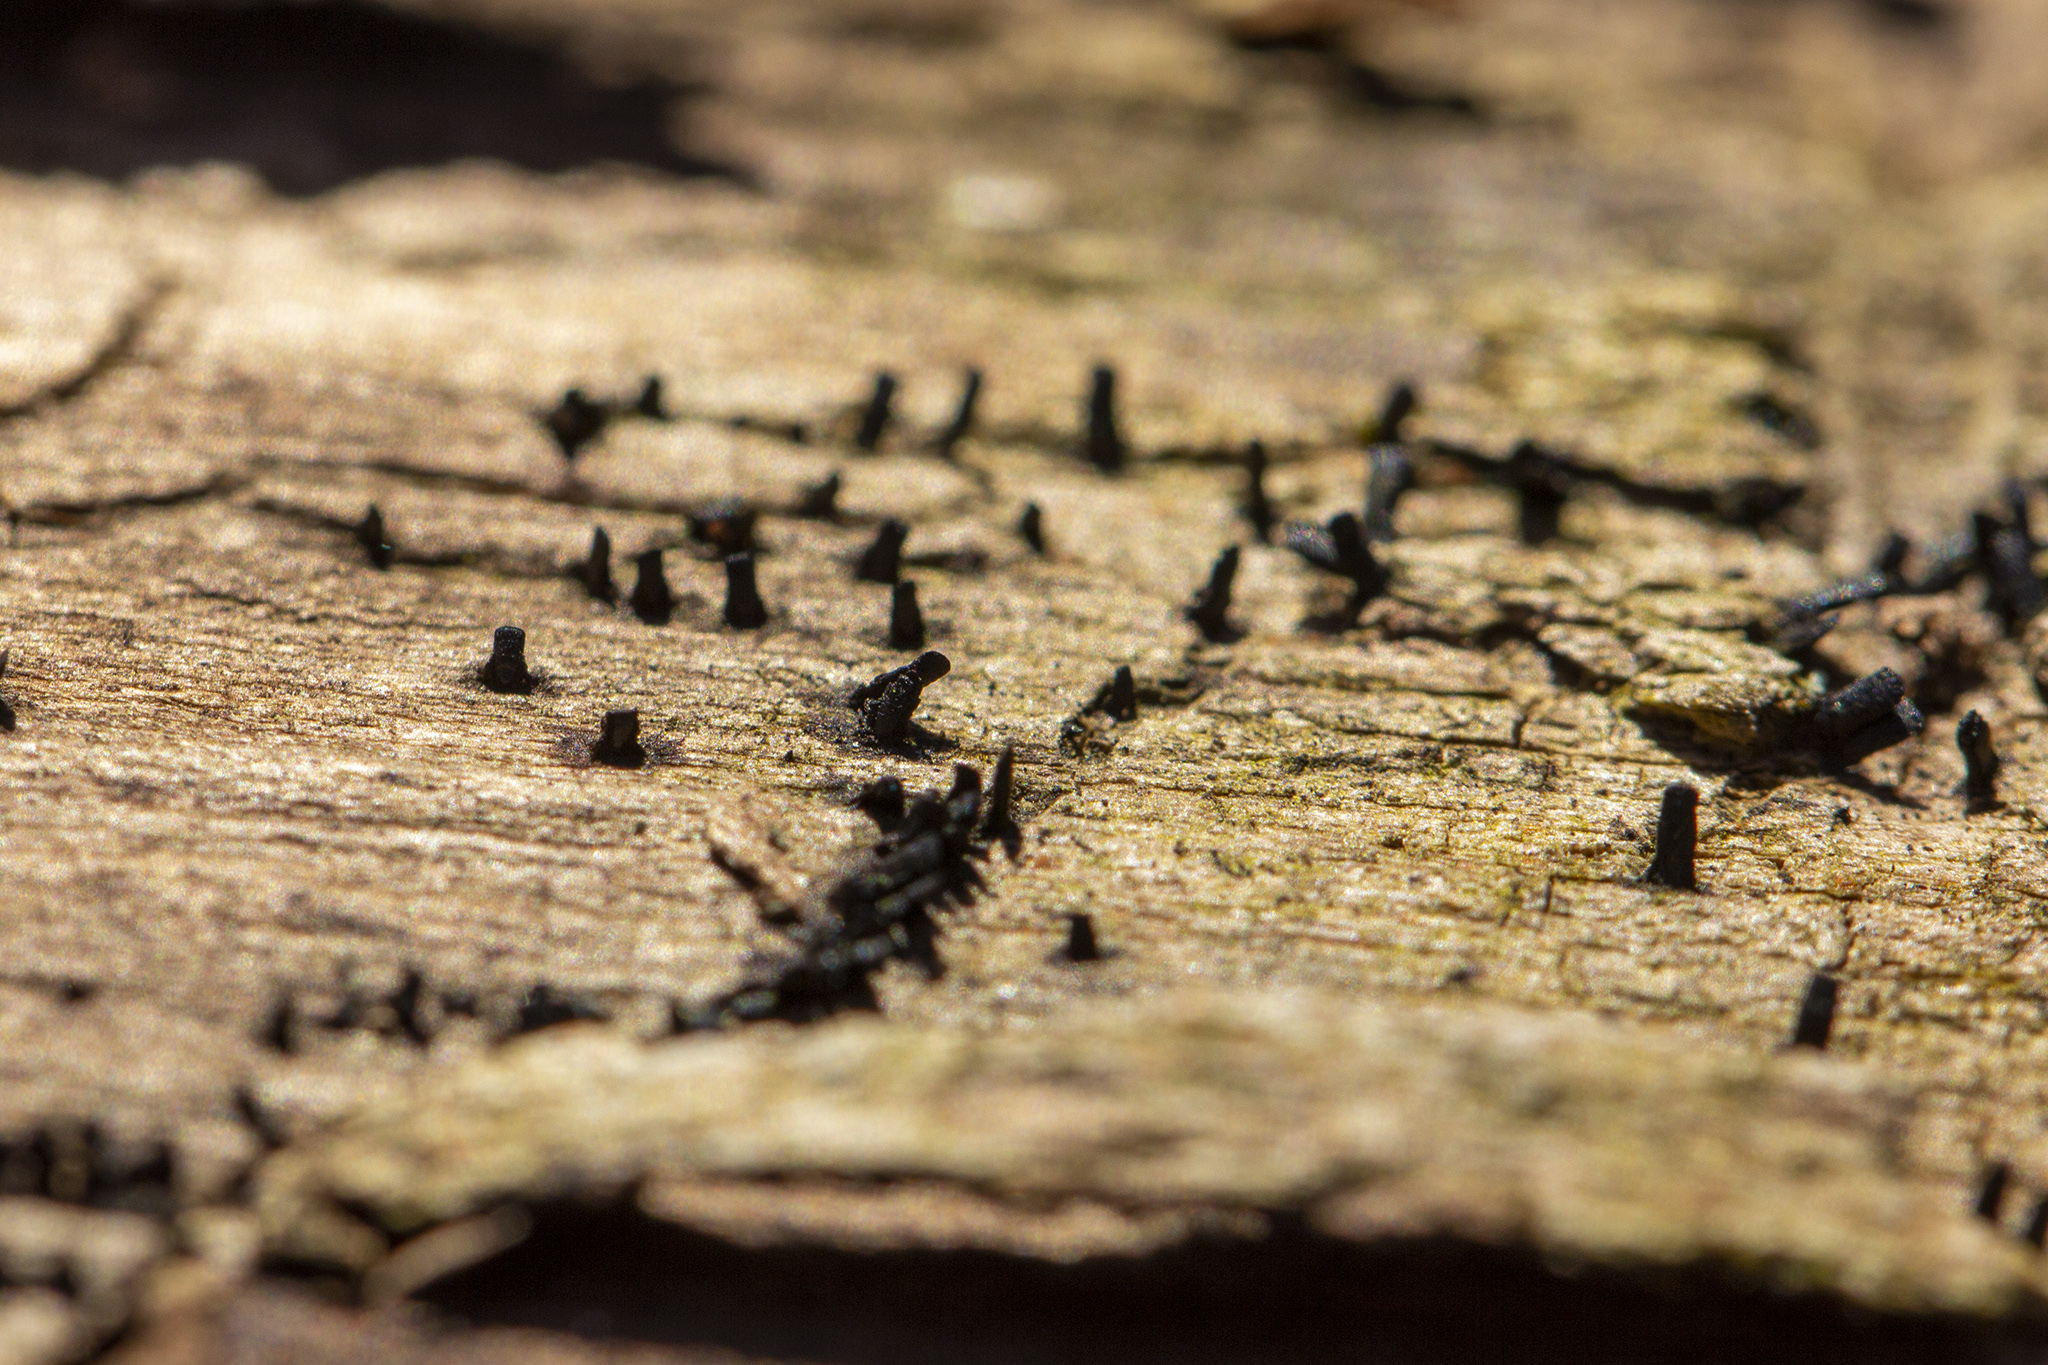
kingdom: Fungi
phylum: Ascomycota
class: Eurotiomycetes
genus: Glyphium
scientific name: Glyphium elatum
